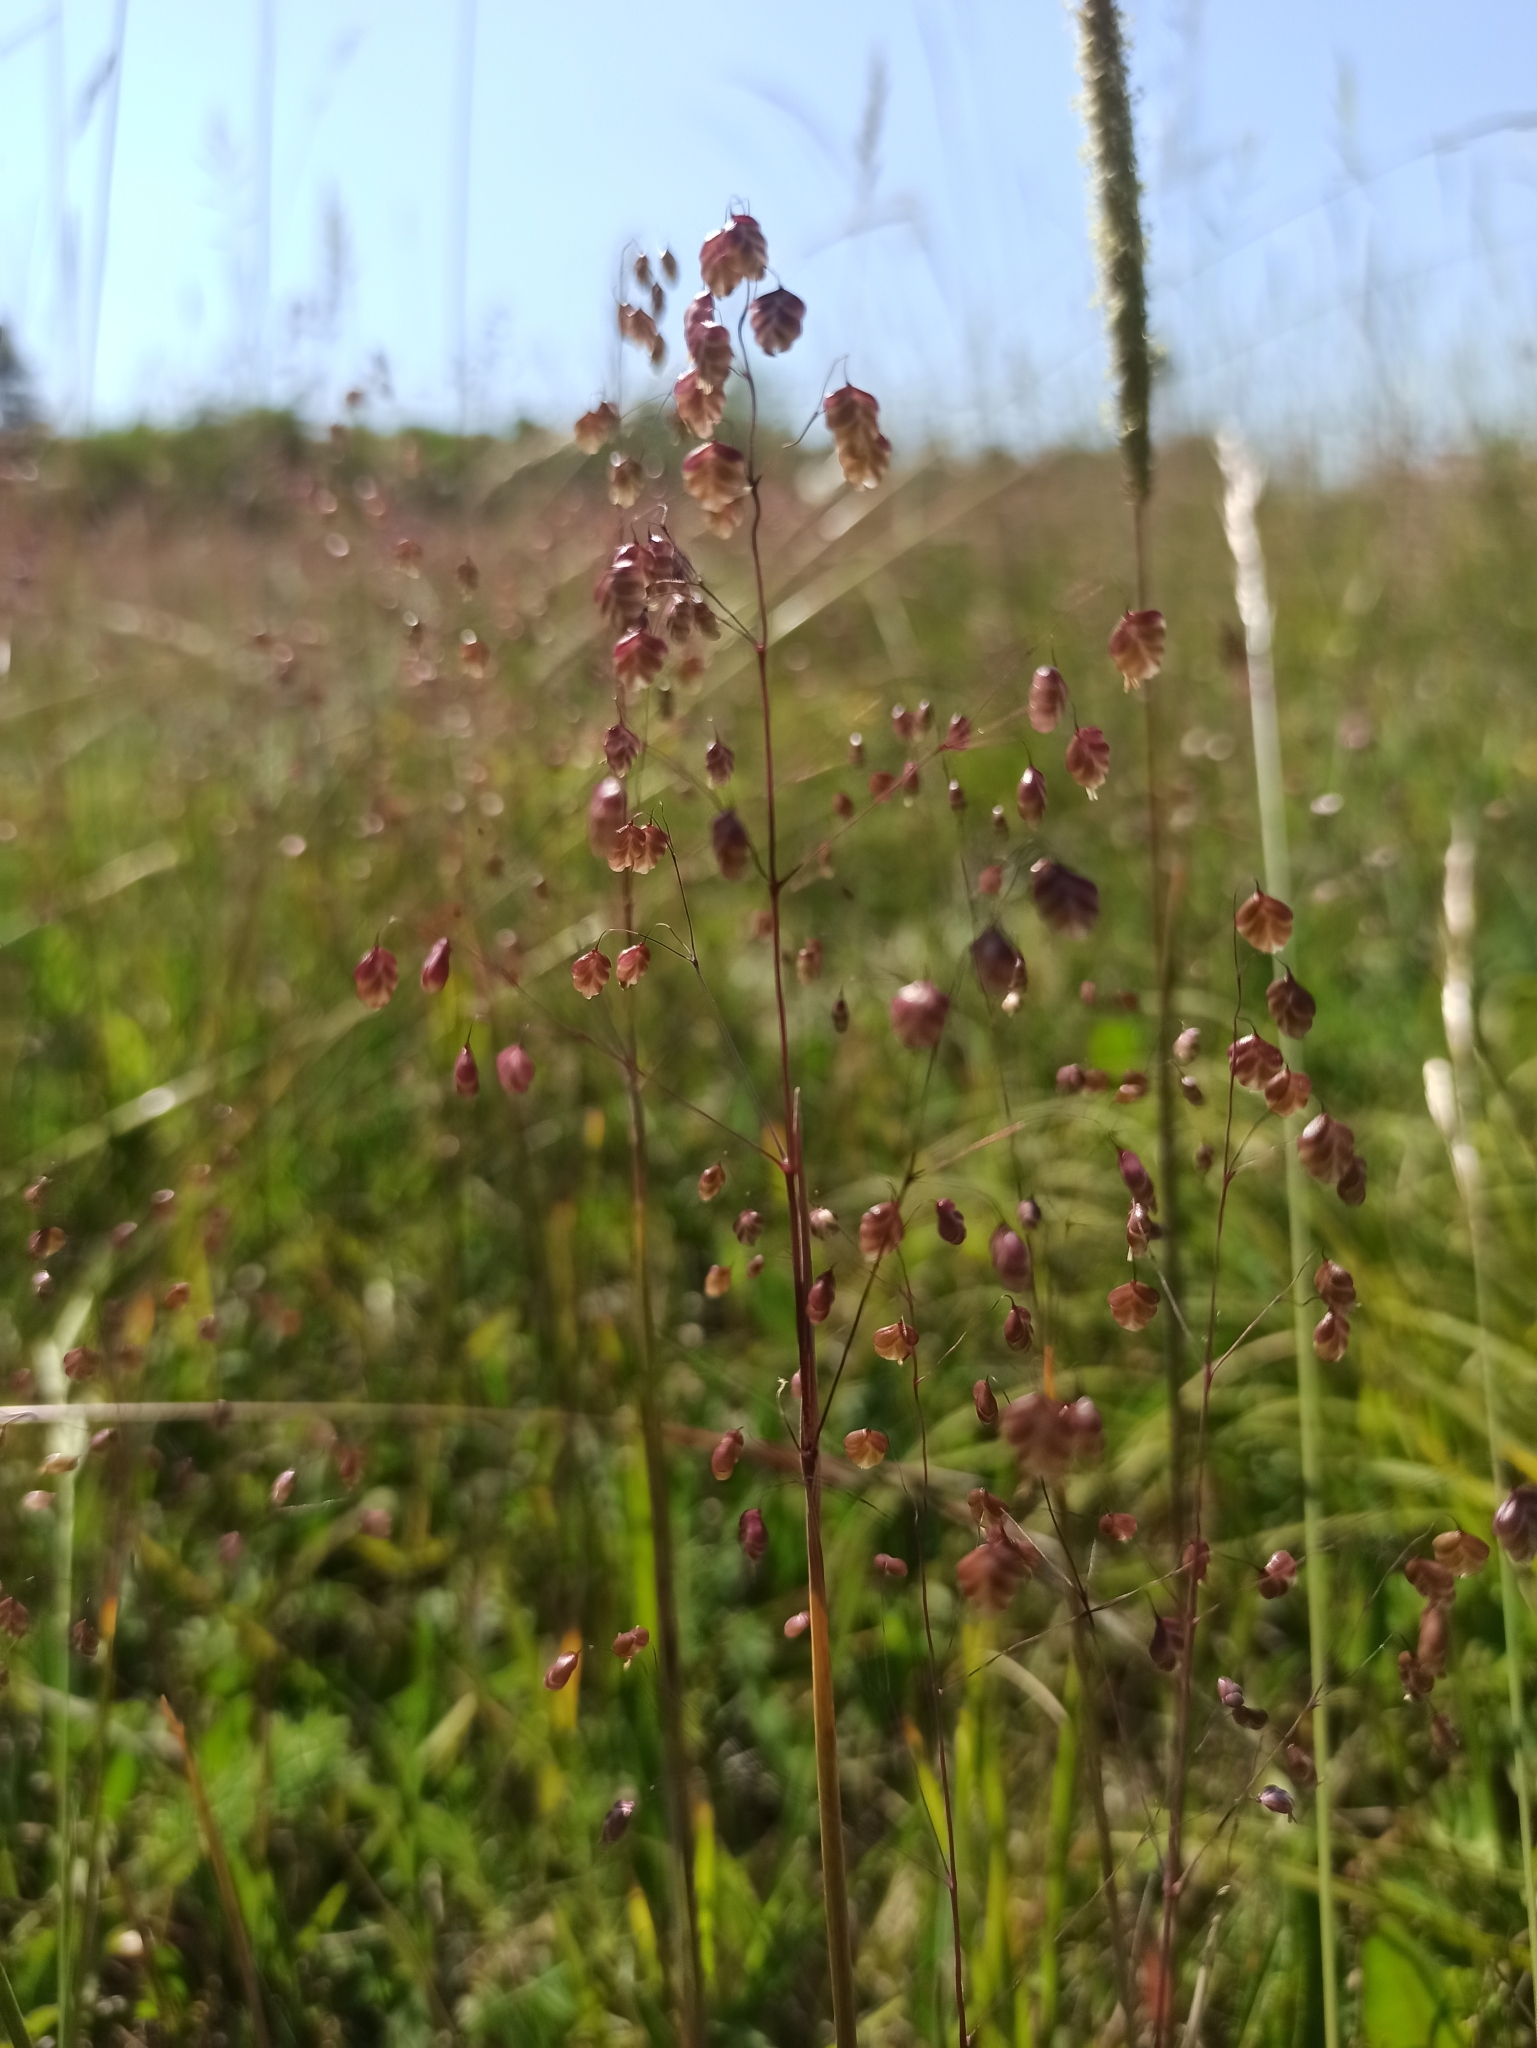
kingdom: Plantae
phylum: Tracheophyta
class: Liliopsida
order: Poales
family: Poaceae
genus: Briza
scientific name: Briza media
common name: Quaking grass
